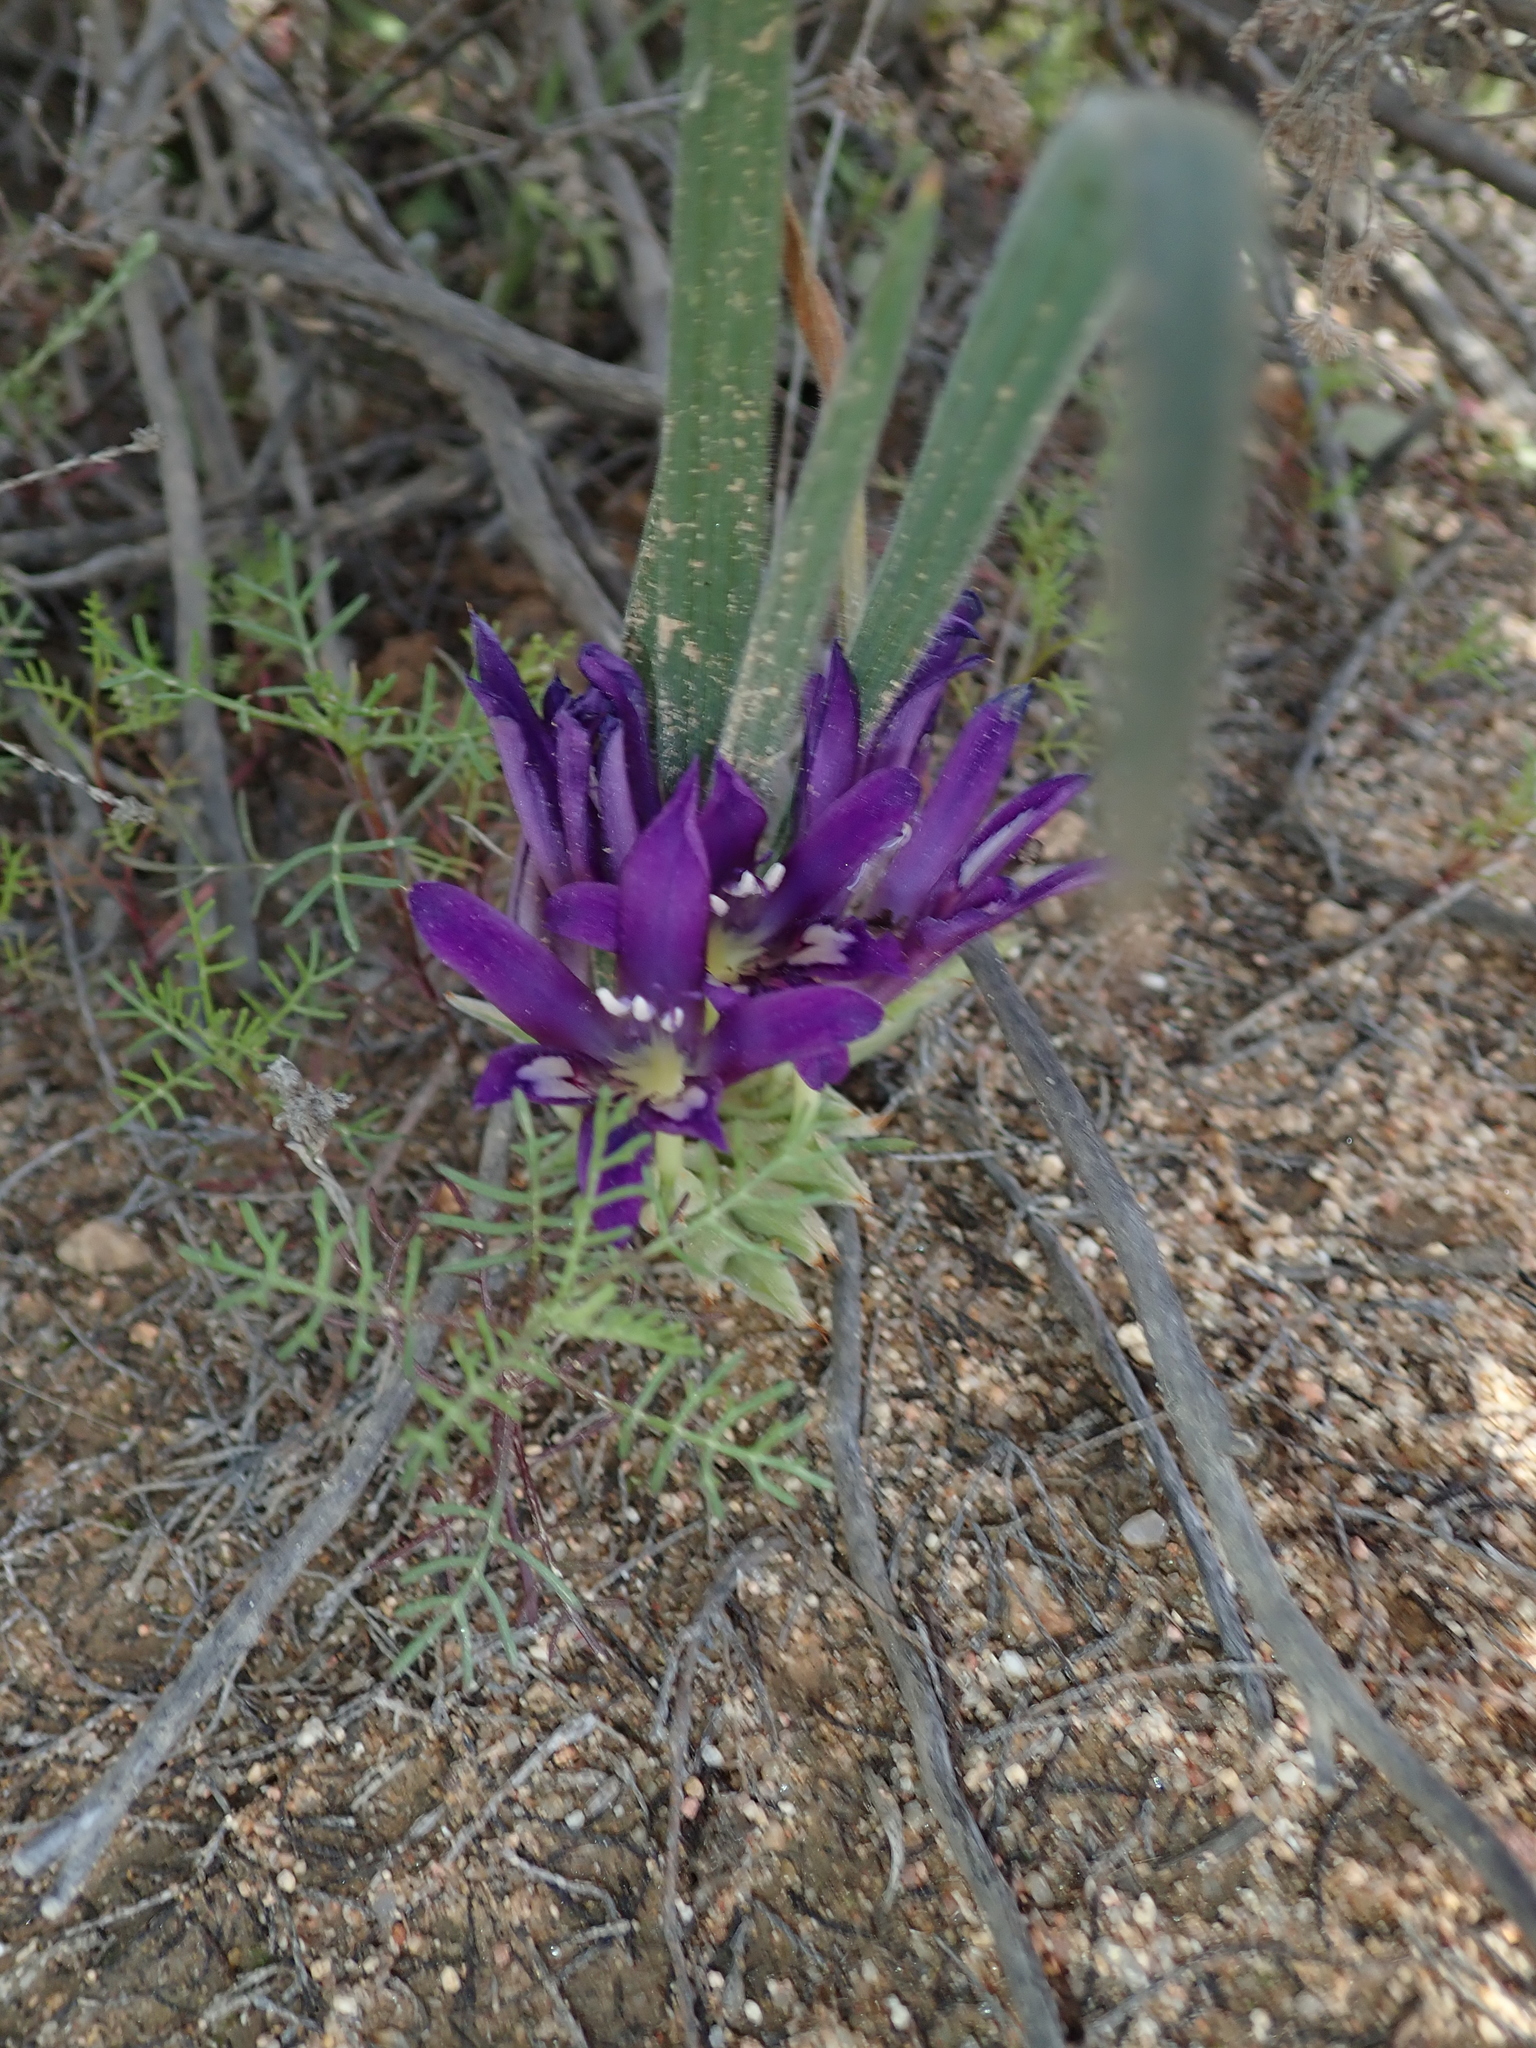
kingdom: Plantae
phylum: Tracheophyta
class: Liliopsida
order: Asparagales
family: Iridaceae
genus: Babiana
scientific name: Babiana curviscapa
